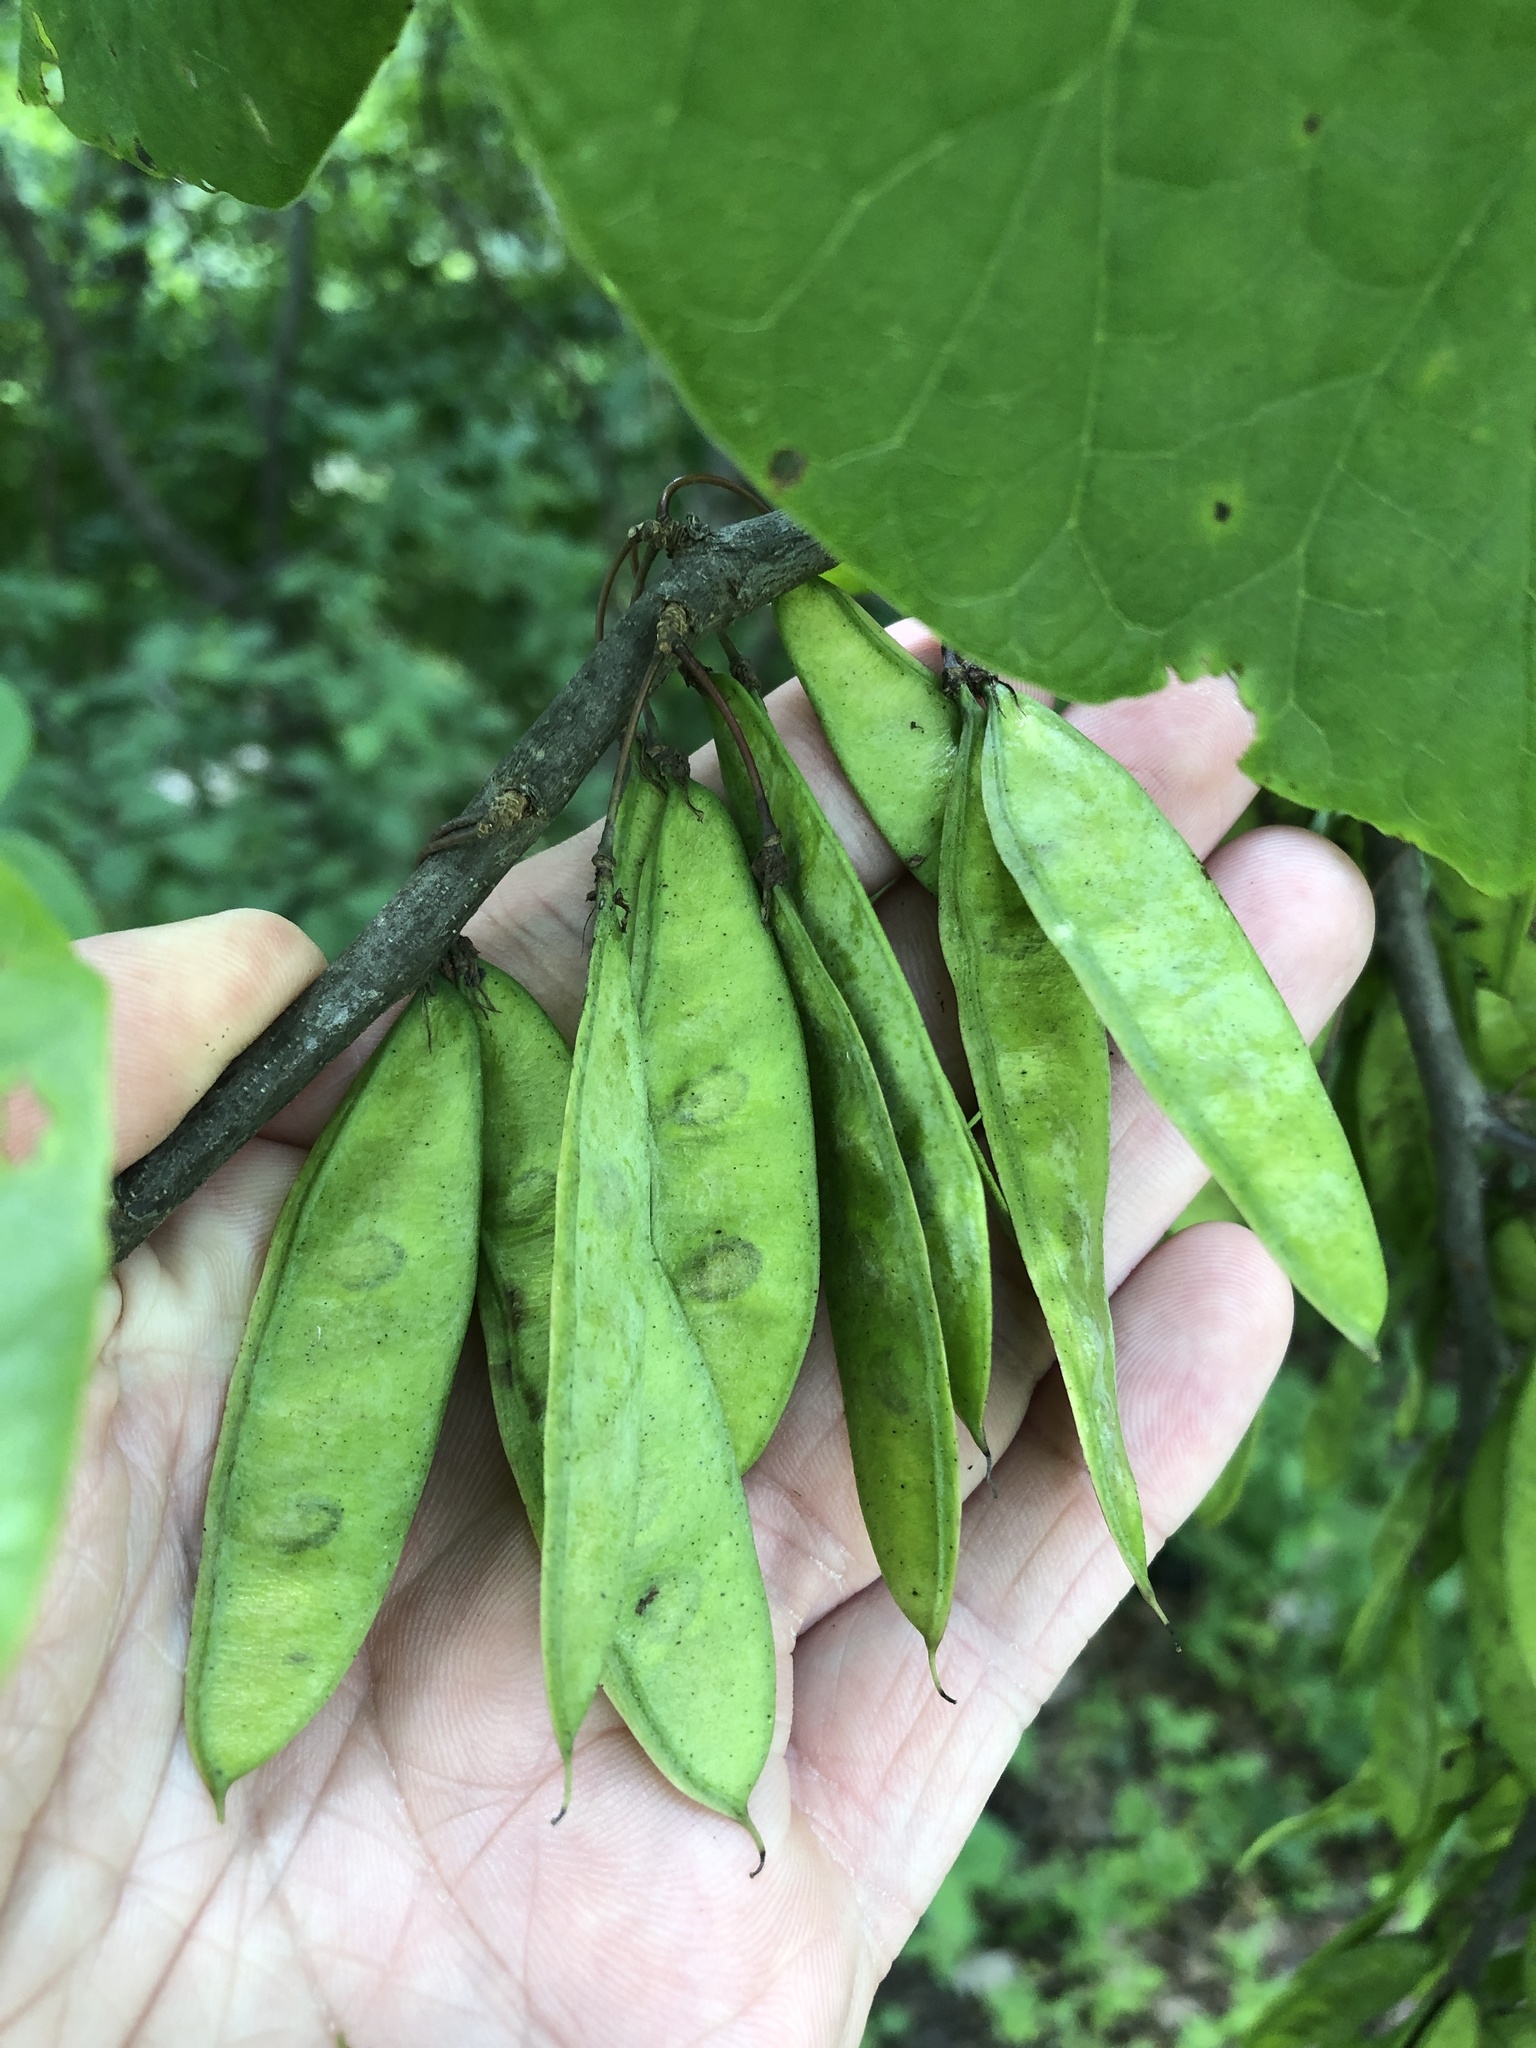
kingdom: Plantae
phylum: Tracheophyta
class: Magnoliopsida
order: Fabales
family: Fabaceae
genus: Cercis
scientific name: Cercis canadensis
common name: Eastern redbud
